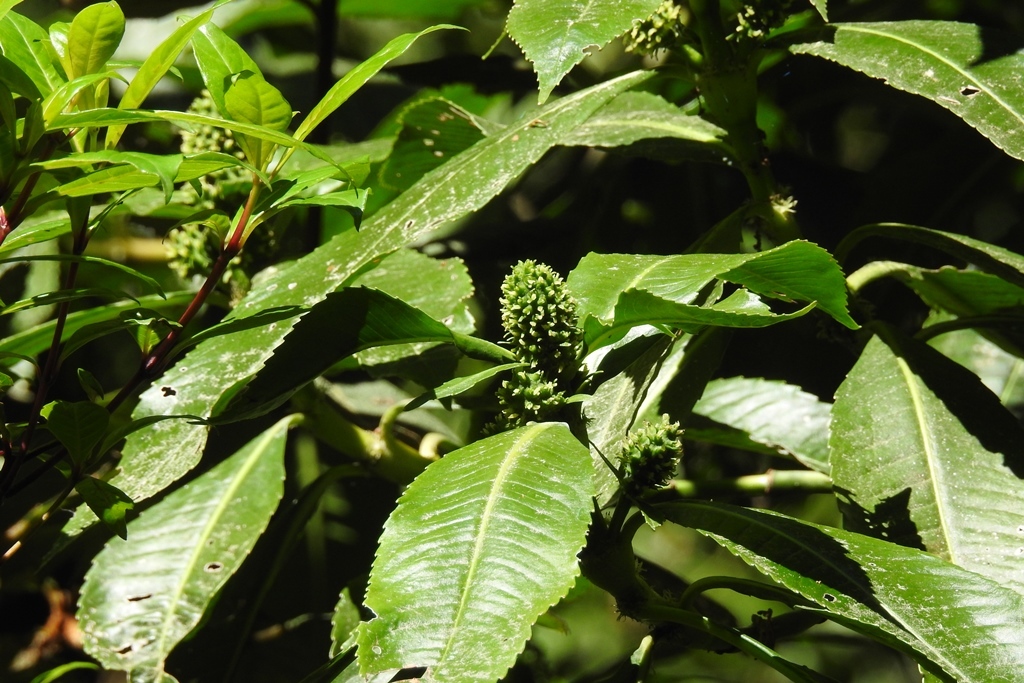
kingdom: Plantae
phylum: Tracheophyta
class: Magnoliopsida
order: Chloranthales
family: Chloranthaceae
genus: Hedyosmum
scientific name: Hedyosmum mexicanum
